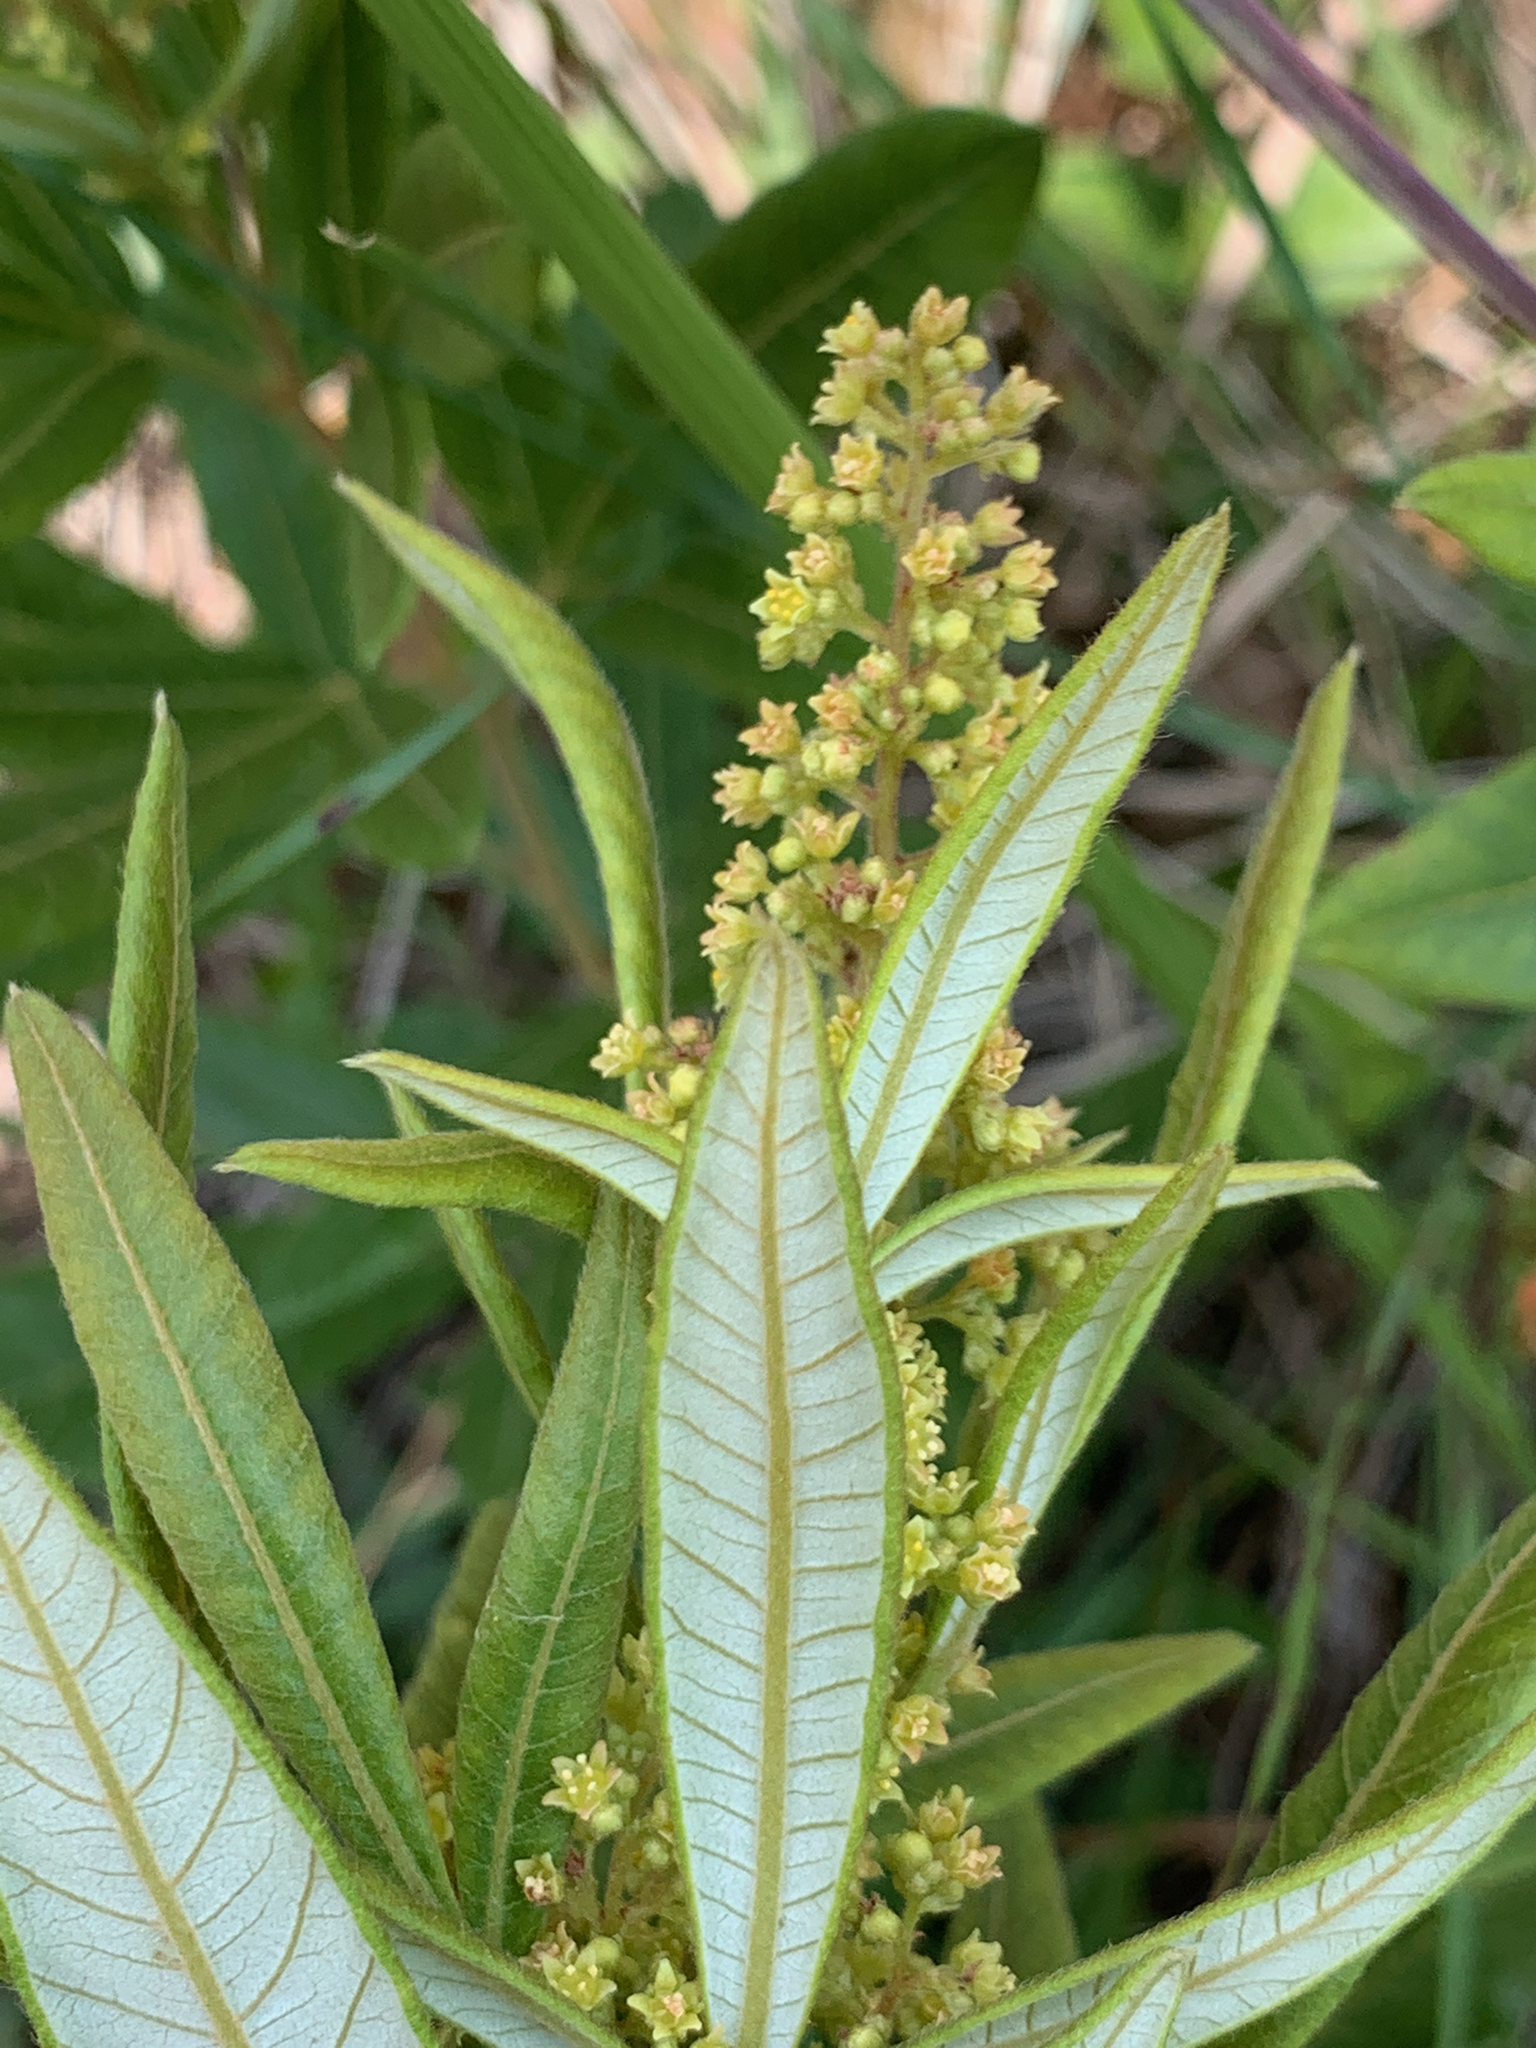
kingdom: Plantae
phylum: Tracheophyta
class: Magnoliopsida
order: Sapindales
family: Anacardiaceae
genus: Searsia
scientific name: Searsia discolor
